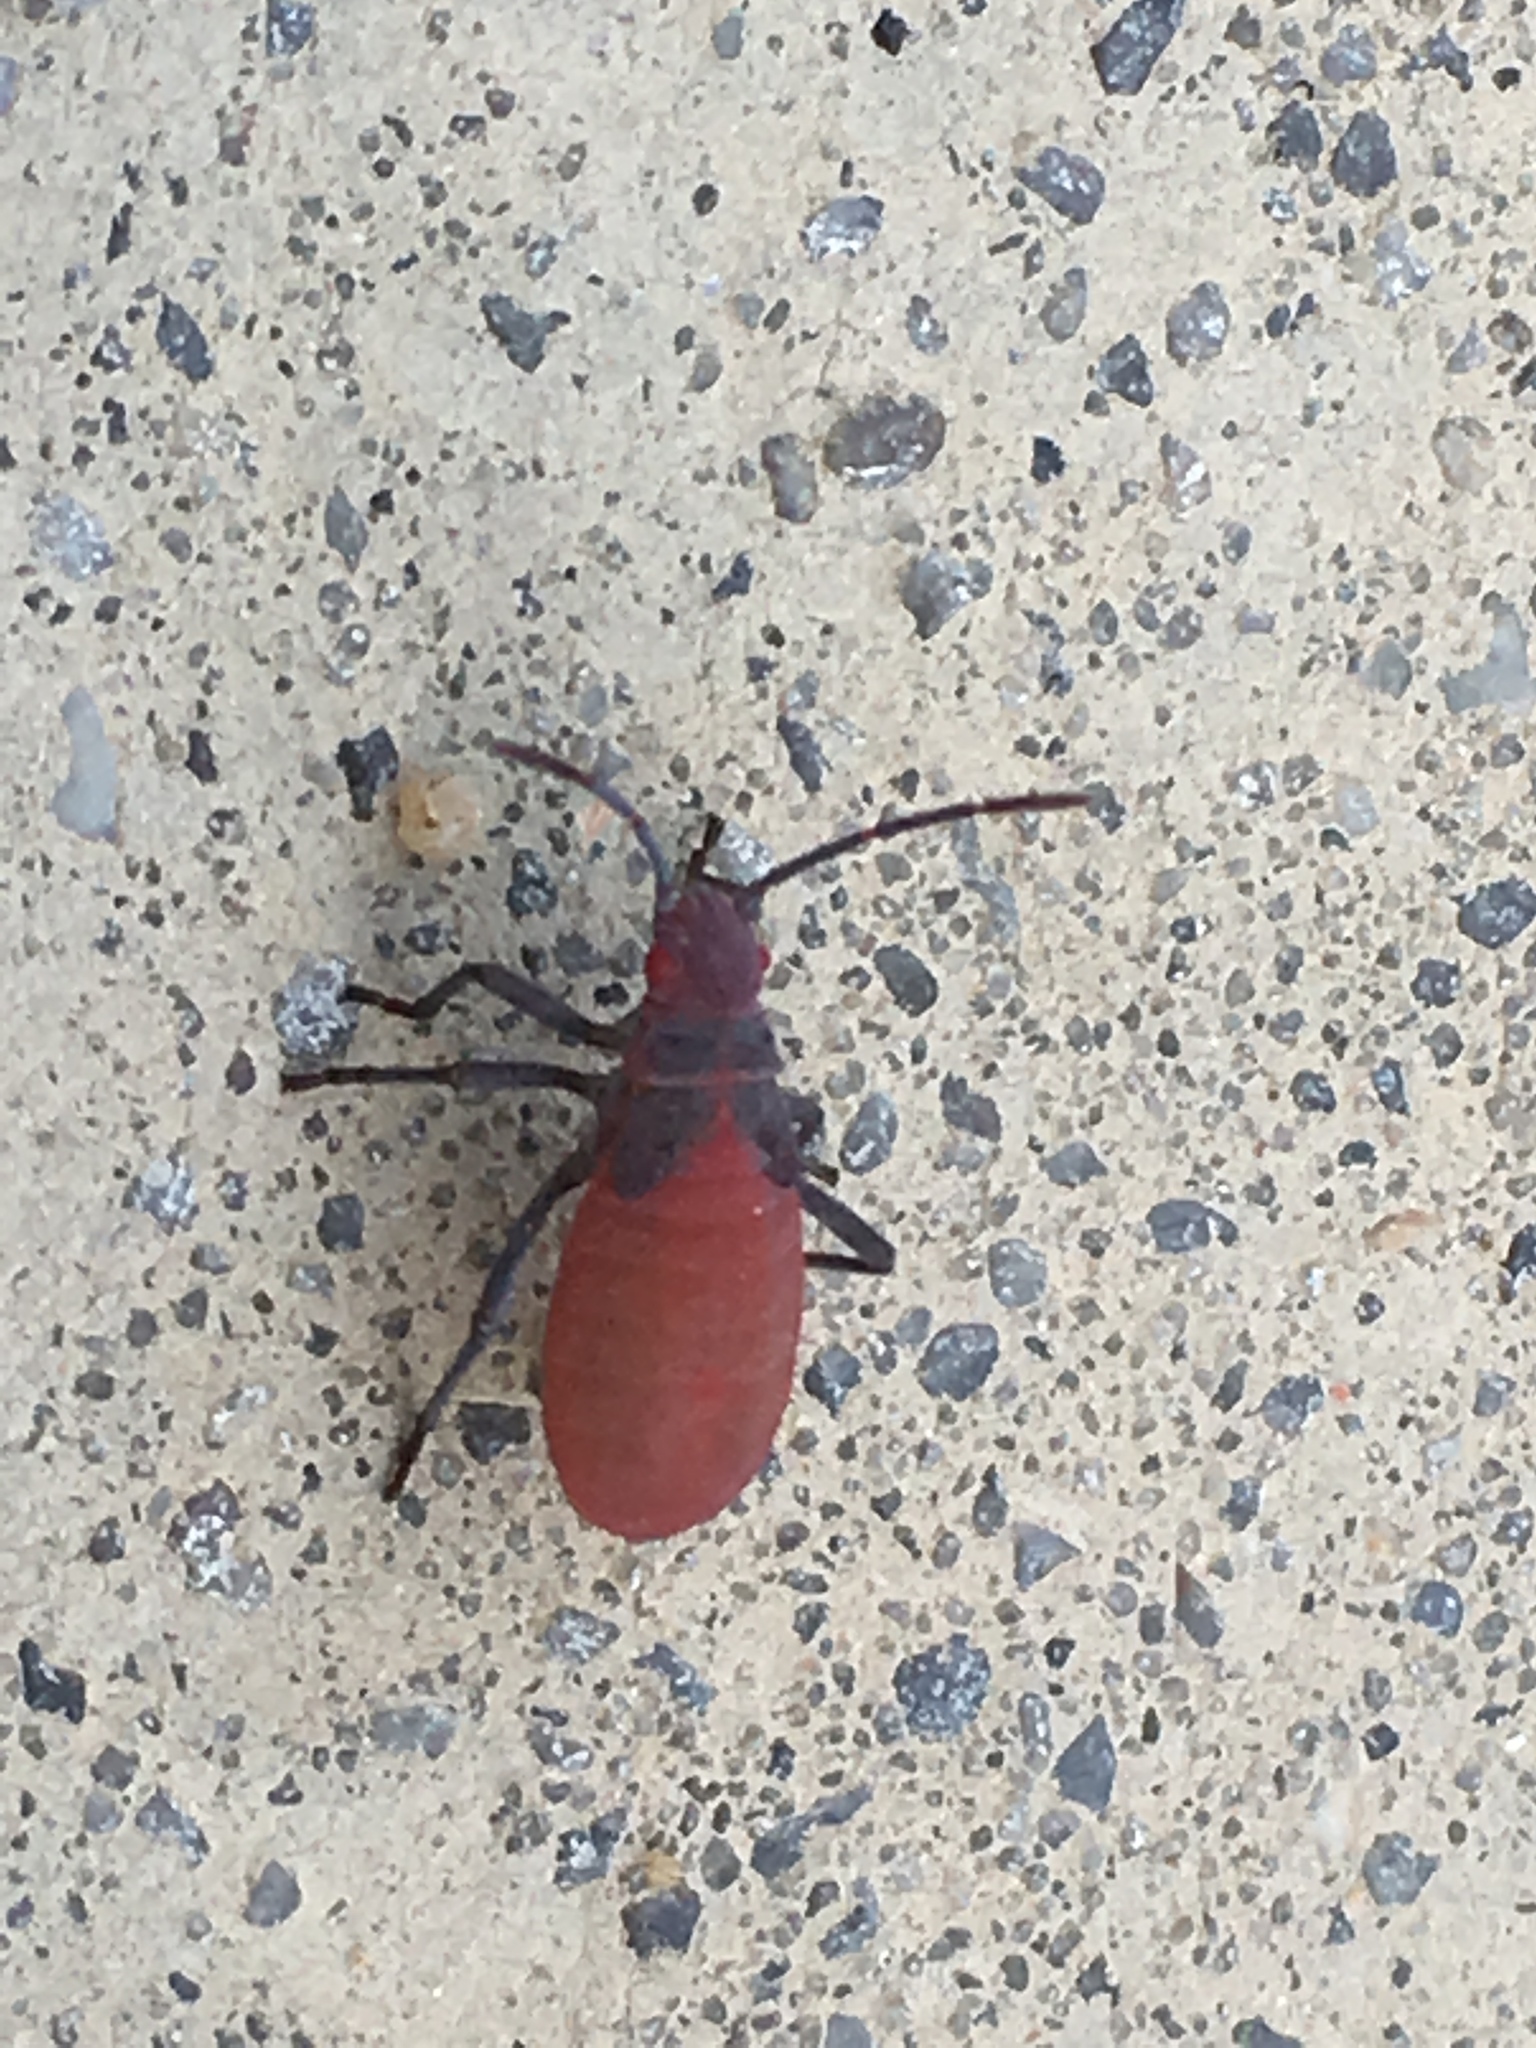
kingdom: Animalia
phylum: Arthropoda
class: Insecta
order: Hemiptera
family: Rhopalidae
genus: Jadera
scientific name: Jadera haematoloma
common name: Red-shouldered bug
